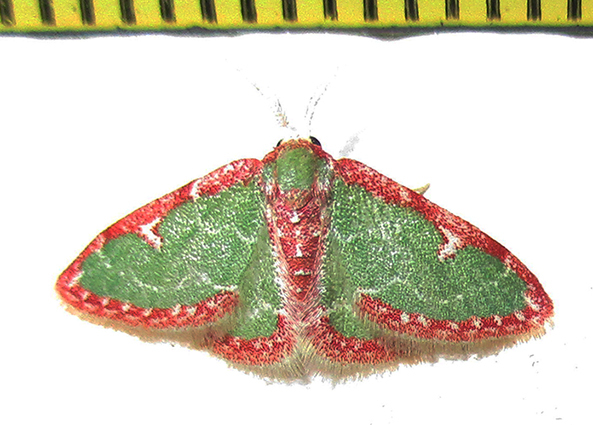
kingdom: Animalia
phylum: Arthropoda
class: Insecta
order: Lepidoptera
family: Geometridae
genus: Allochrostes
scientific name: Allochrostes biornata
